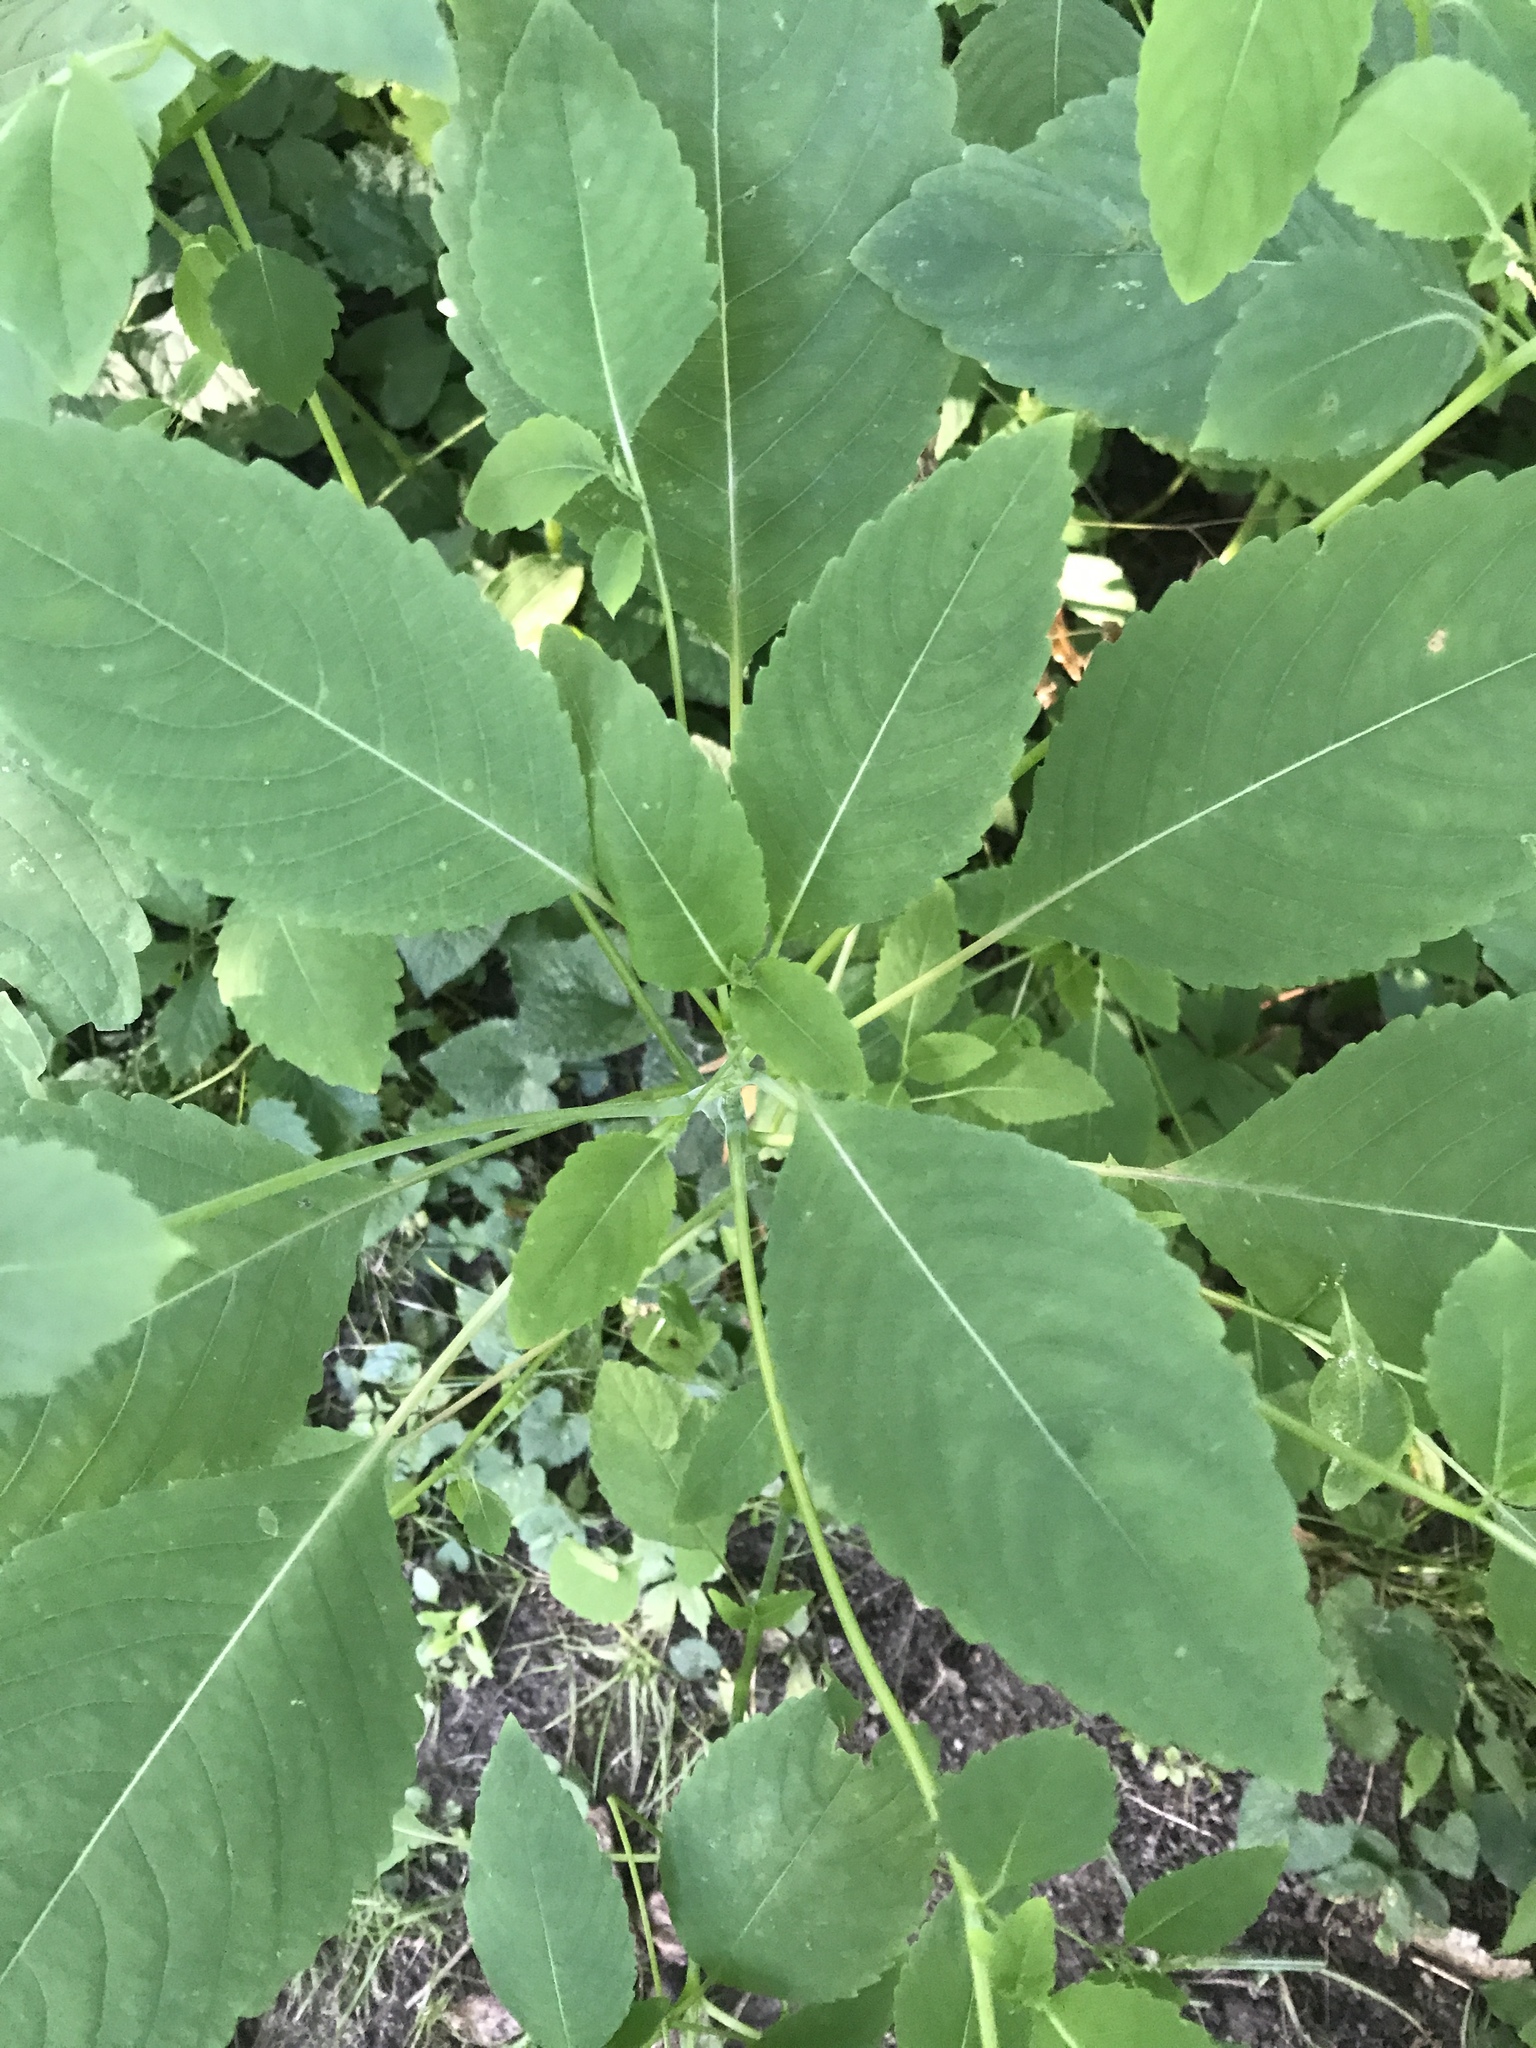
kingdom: Plantae
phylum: Tracheophyta
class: Magnoliopsida
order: Ericales
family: Balsaminaceae
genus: Impatiens
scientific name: Impatiens pallida
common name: Pale snapweed
